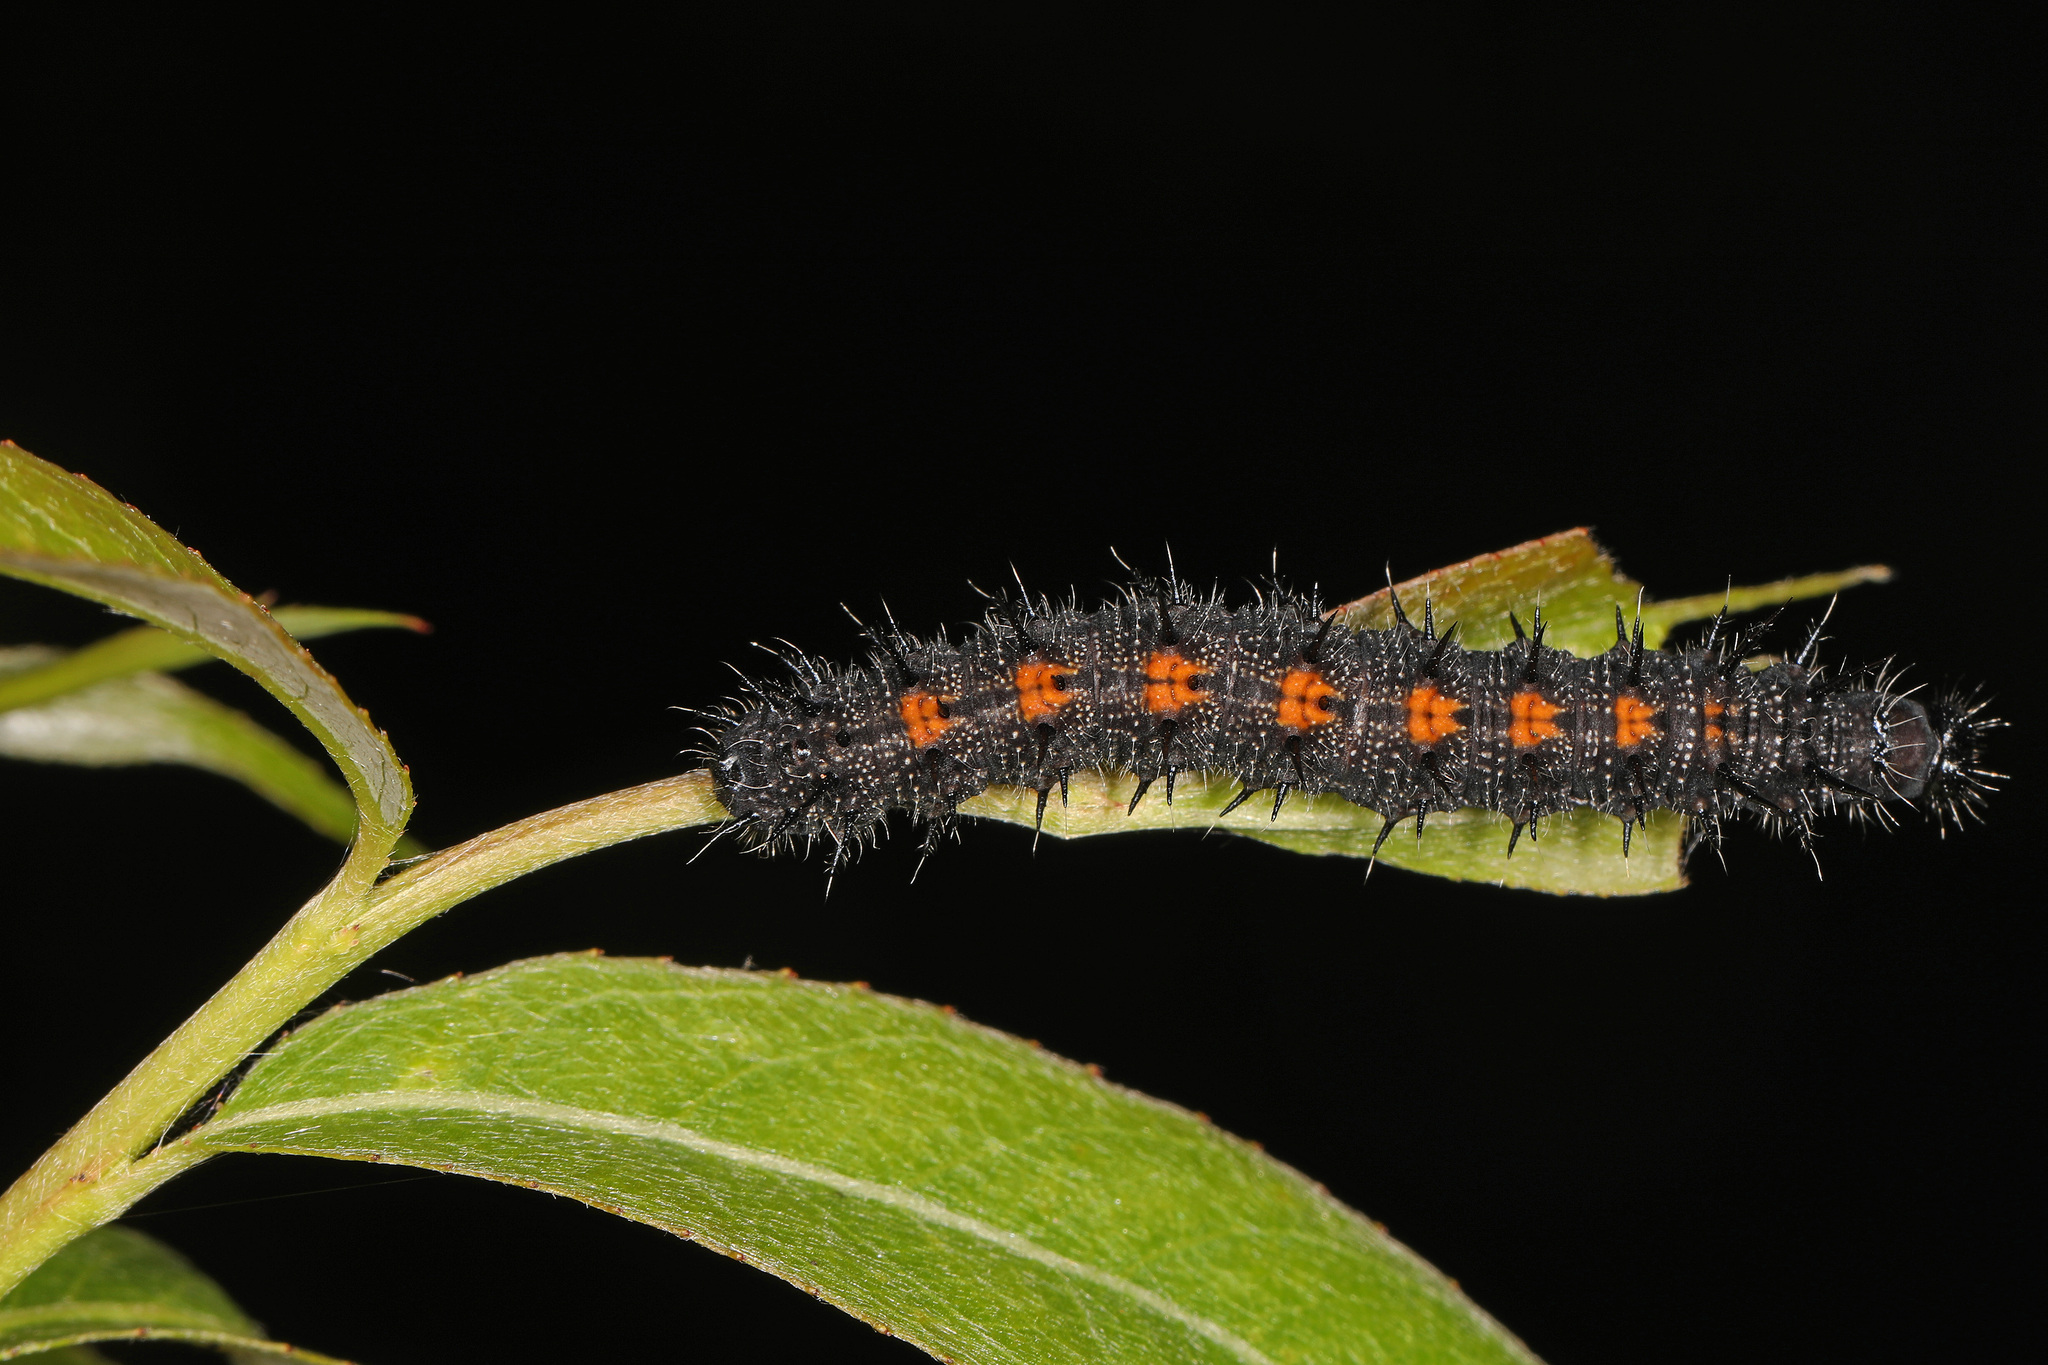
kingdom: Animalia
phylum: Arthropoda
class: Insecta
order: Lepidoptera
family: Nymphalidae
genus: Nymphalis
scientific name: Nymphalis antiopa
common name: Camberwell beauty
